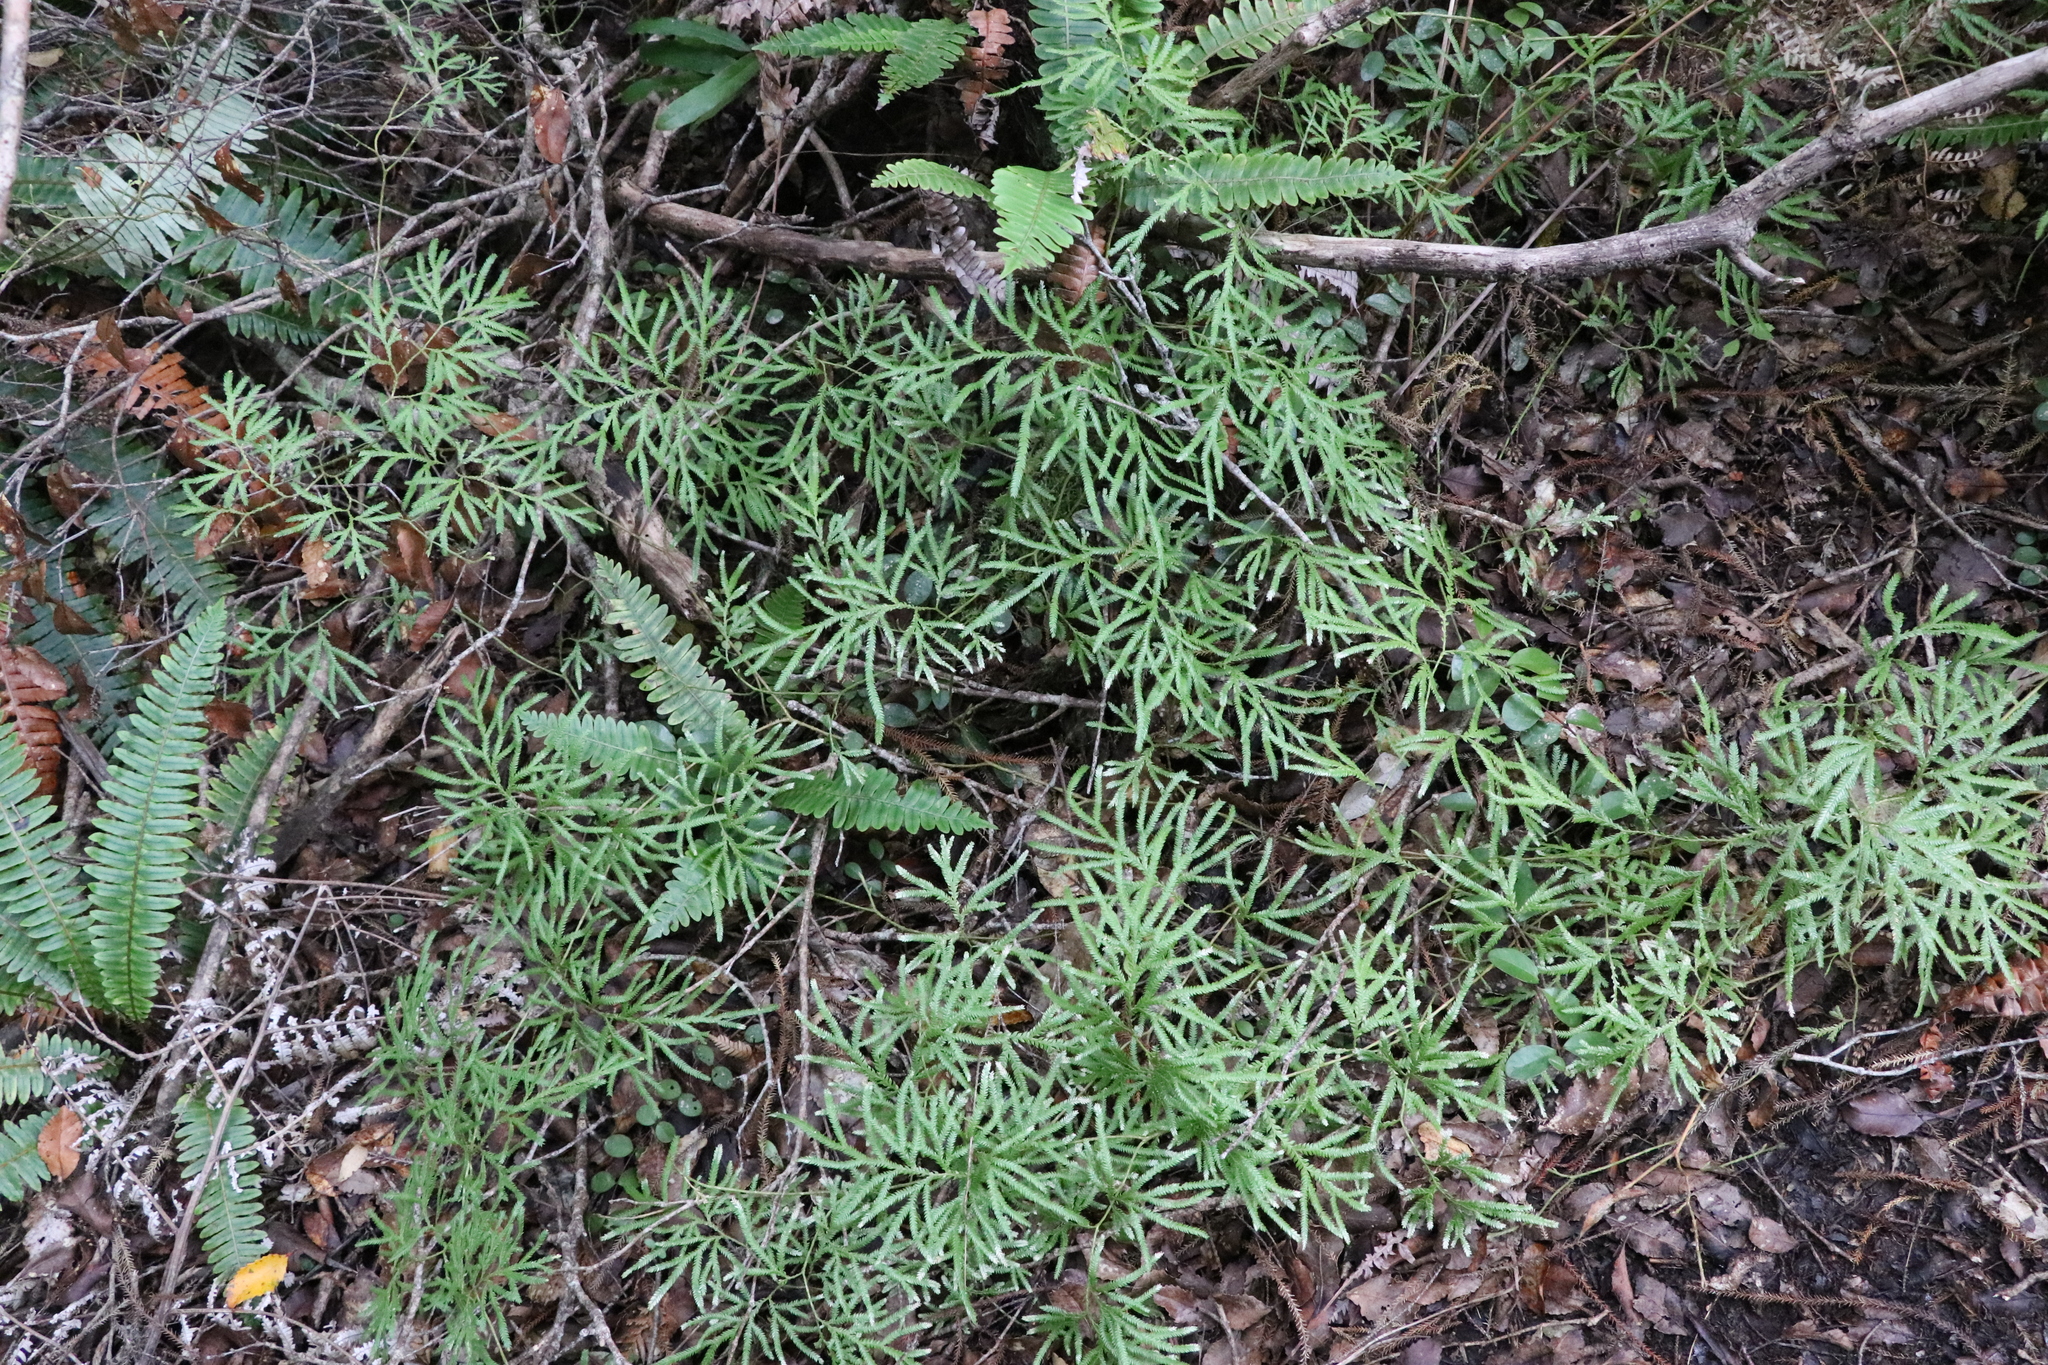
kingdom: Plantae
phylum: Tracheophyta
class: Lycopodiopsida
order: Lycopodiales
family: Lycopodiaceae
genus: Lycopodium
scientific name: Lycopodium volubile
